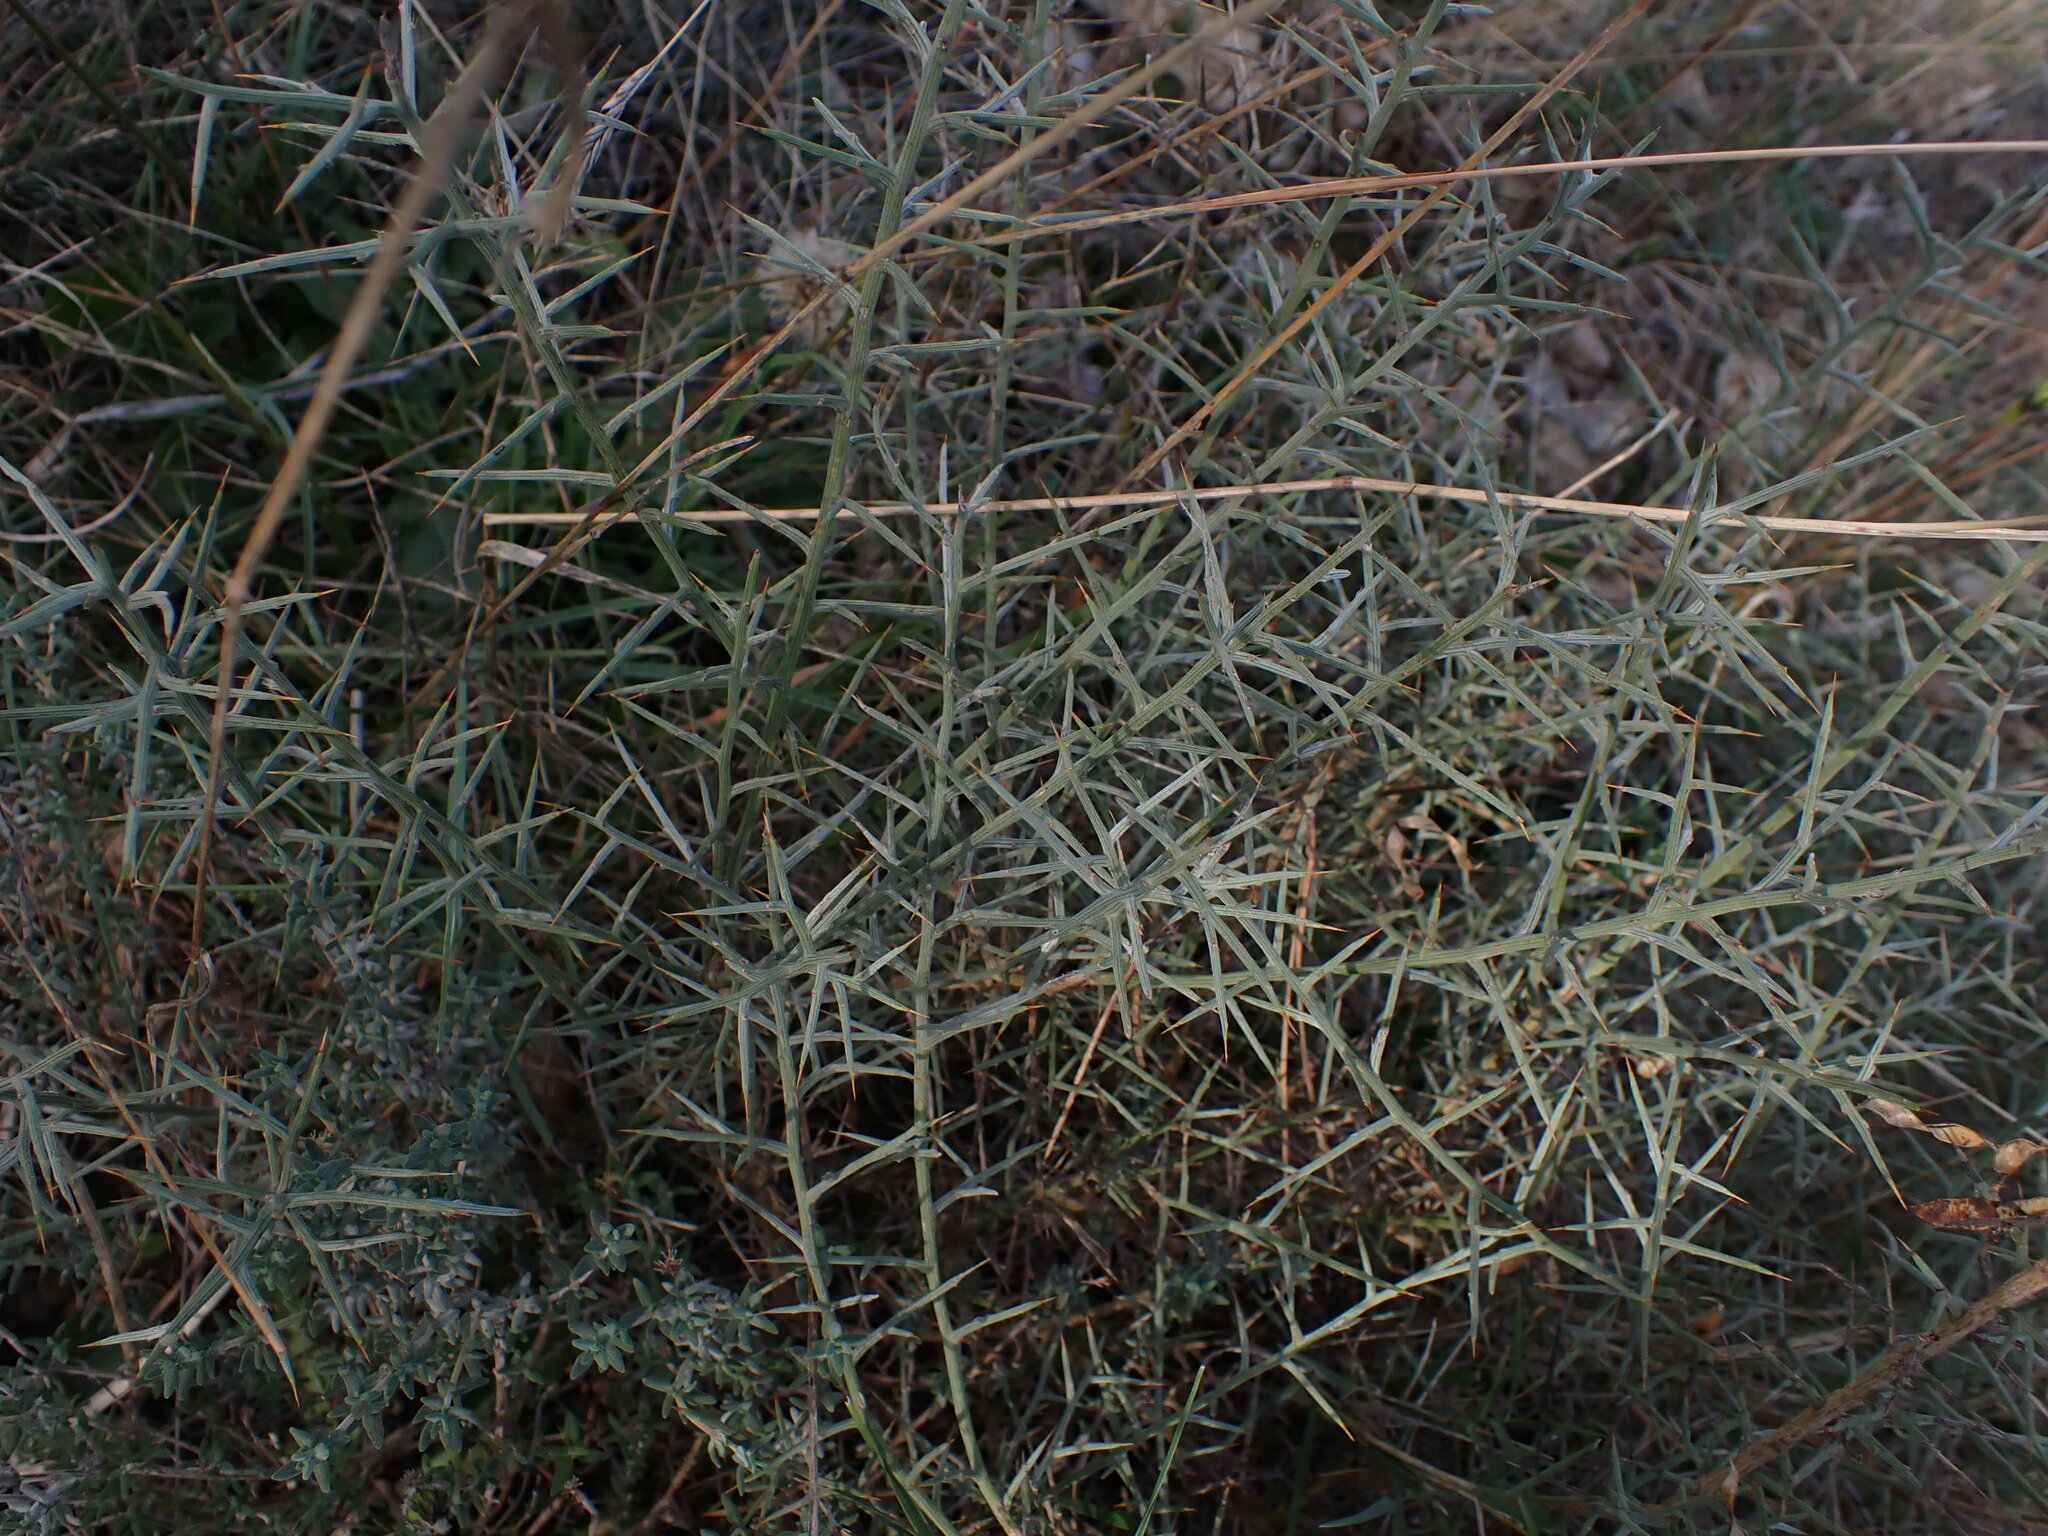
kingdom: Plantae
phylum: Tracheophyta
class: Magnoliopsida
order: Fabales
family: Fabaceae
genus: Genista
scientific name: Genista scorpius
